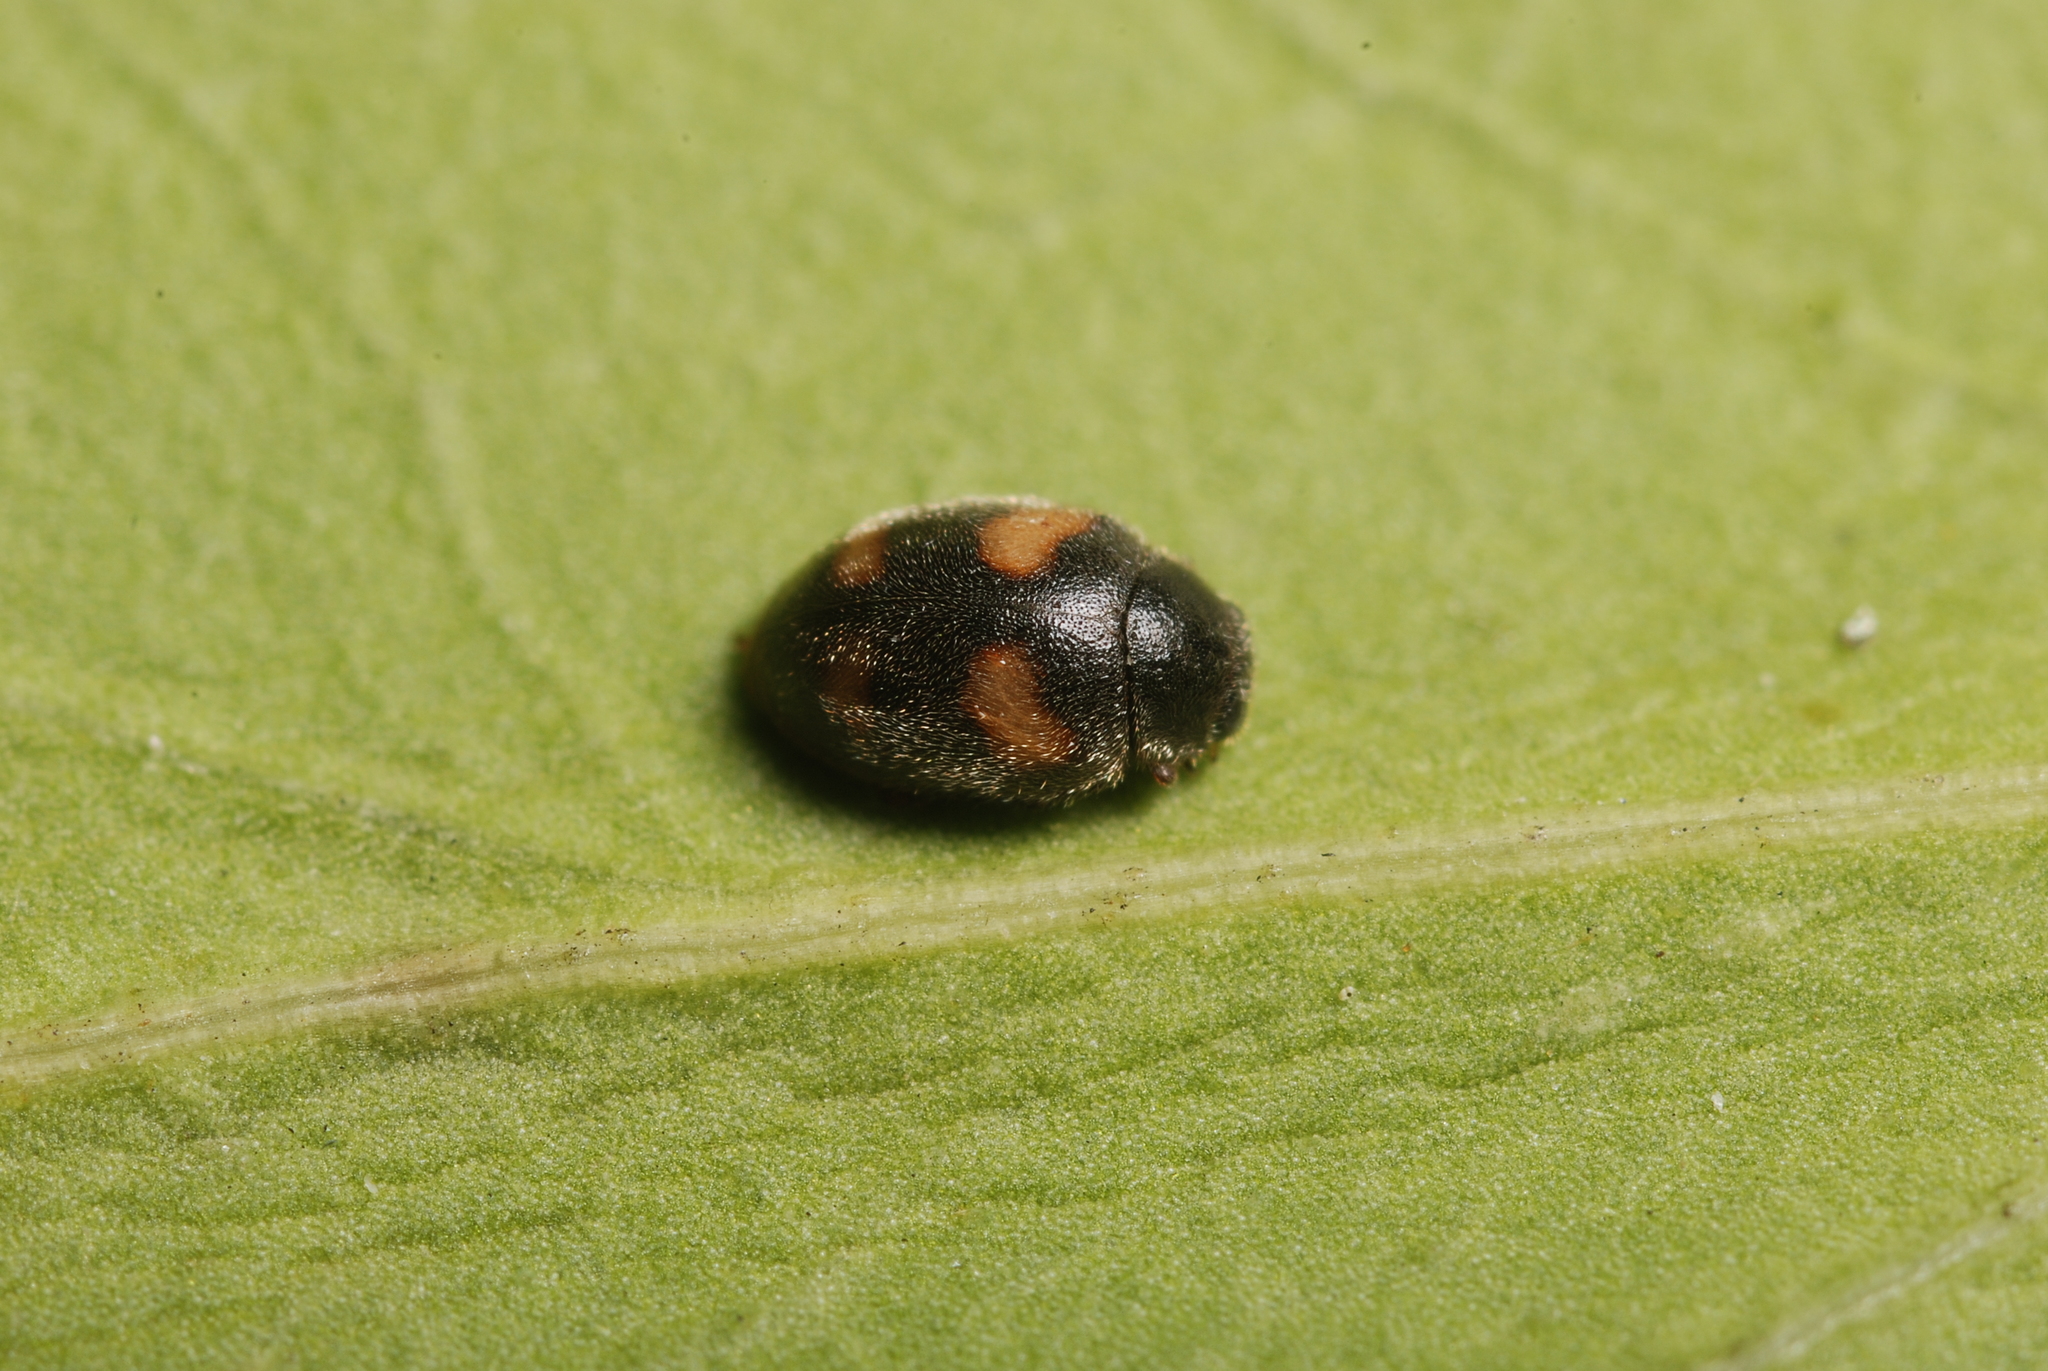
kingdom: Animalia
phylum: Arthropoda
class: Insecta
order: Coleoptera
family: Coccinellidae
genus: Nephus
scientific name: Nephus quadrimaculatus
